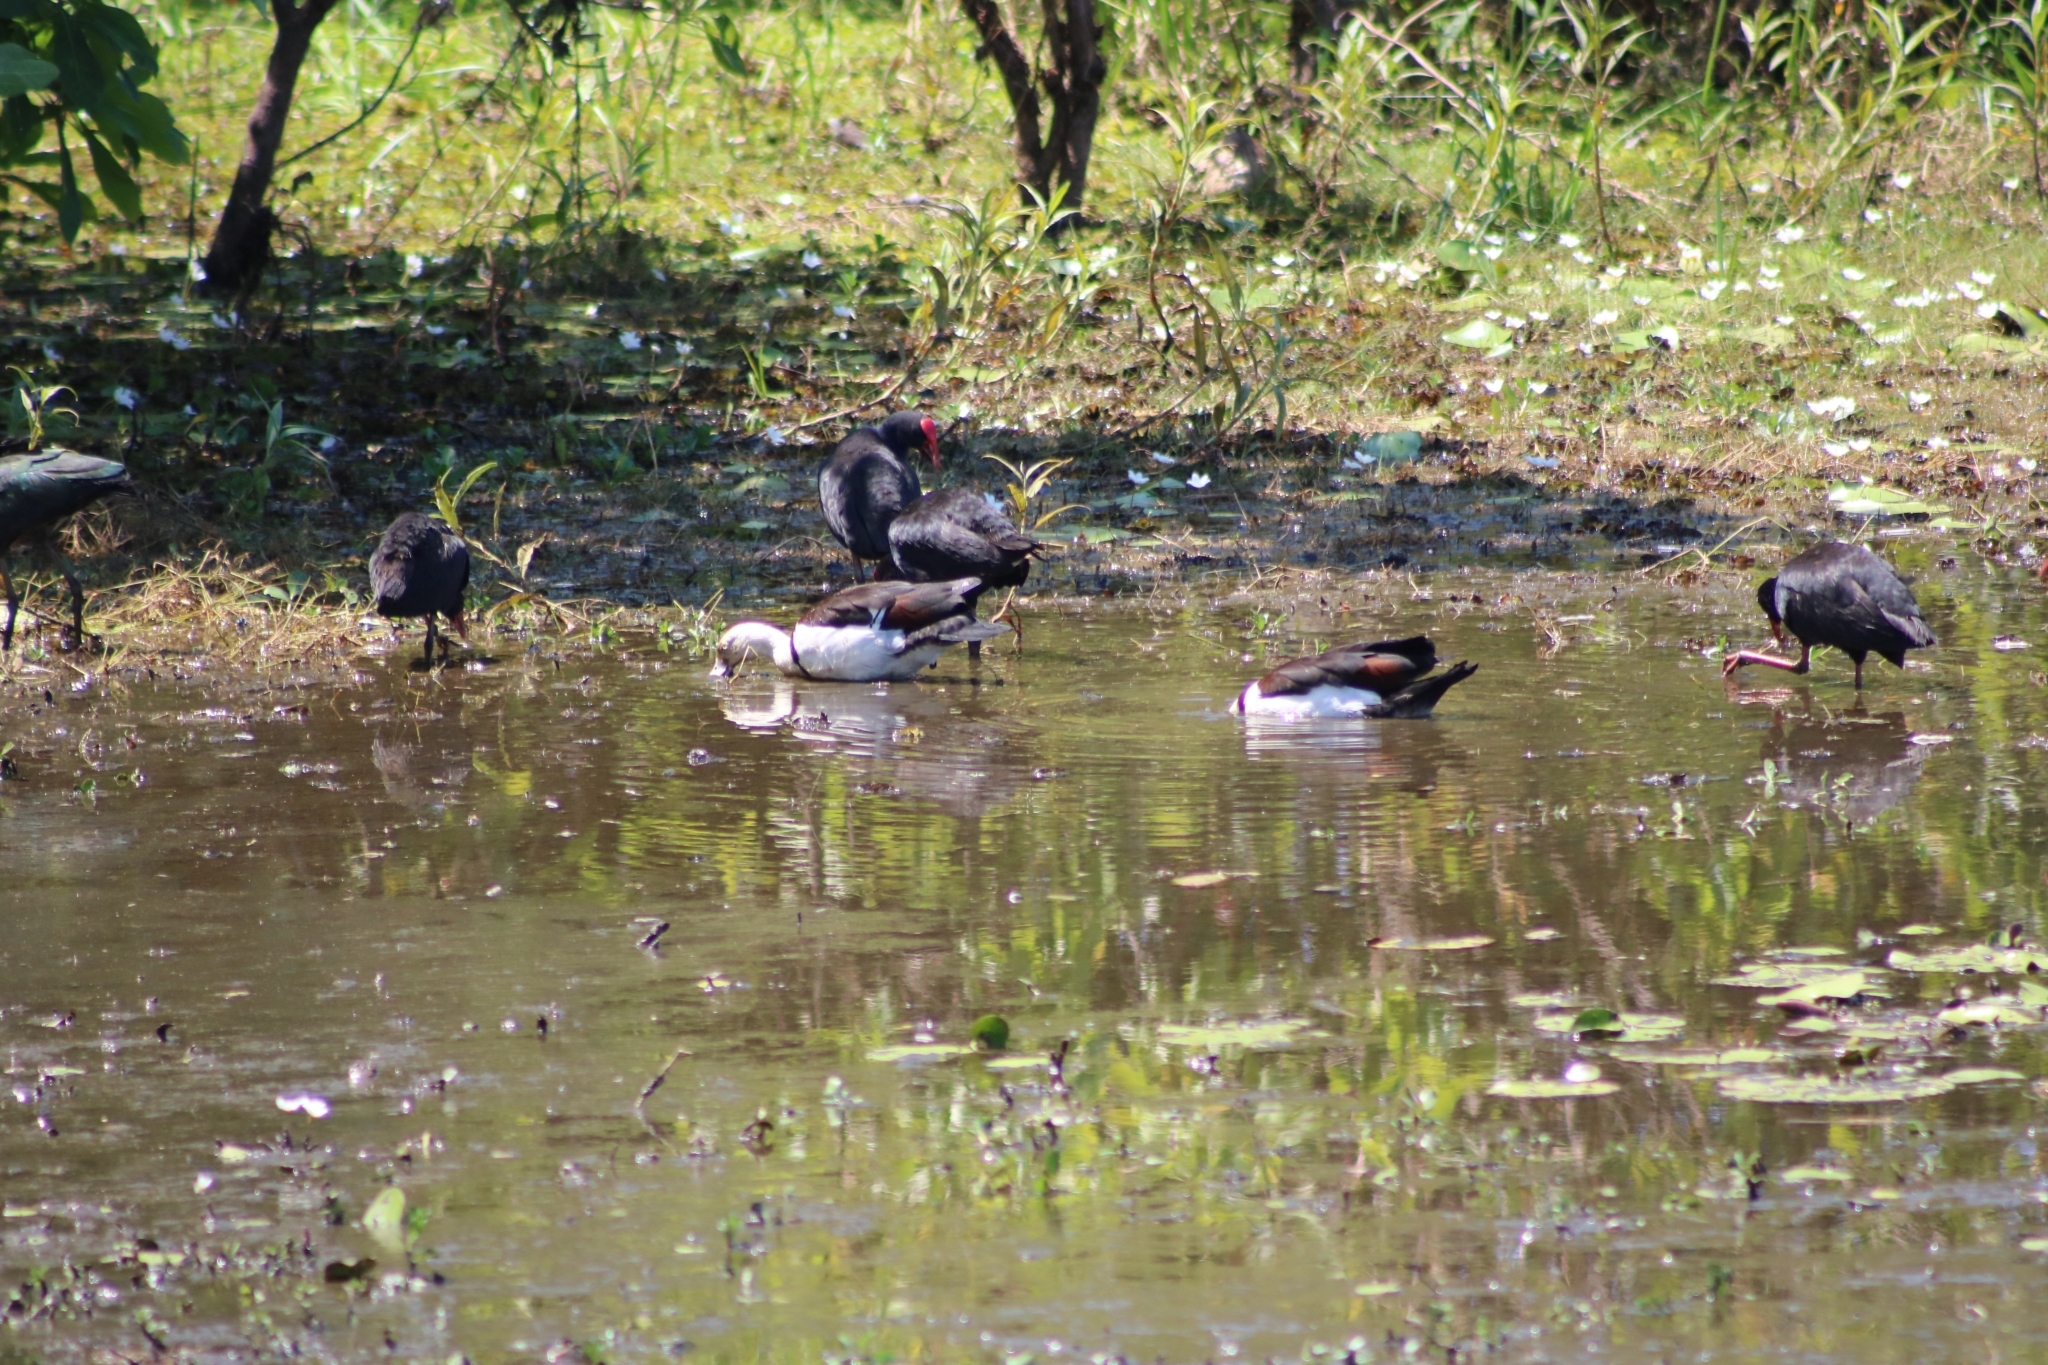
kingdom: Animalia
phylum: Chordata
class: Aves
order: Anseriformes
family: Anatidae
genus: Radjah
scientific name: Radjah radjah
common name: Radjah shelduck
